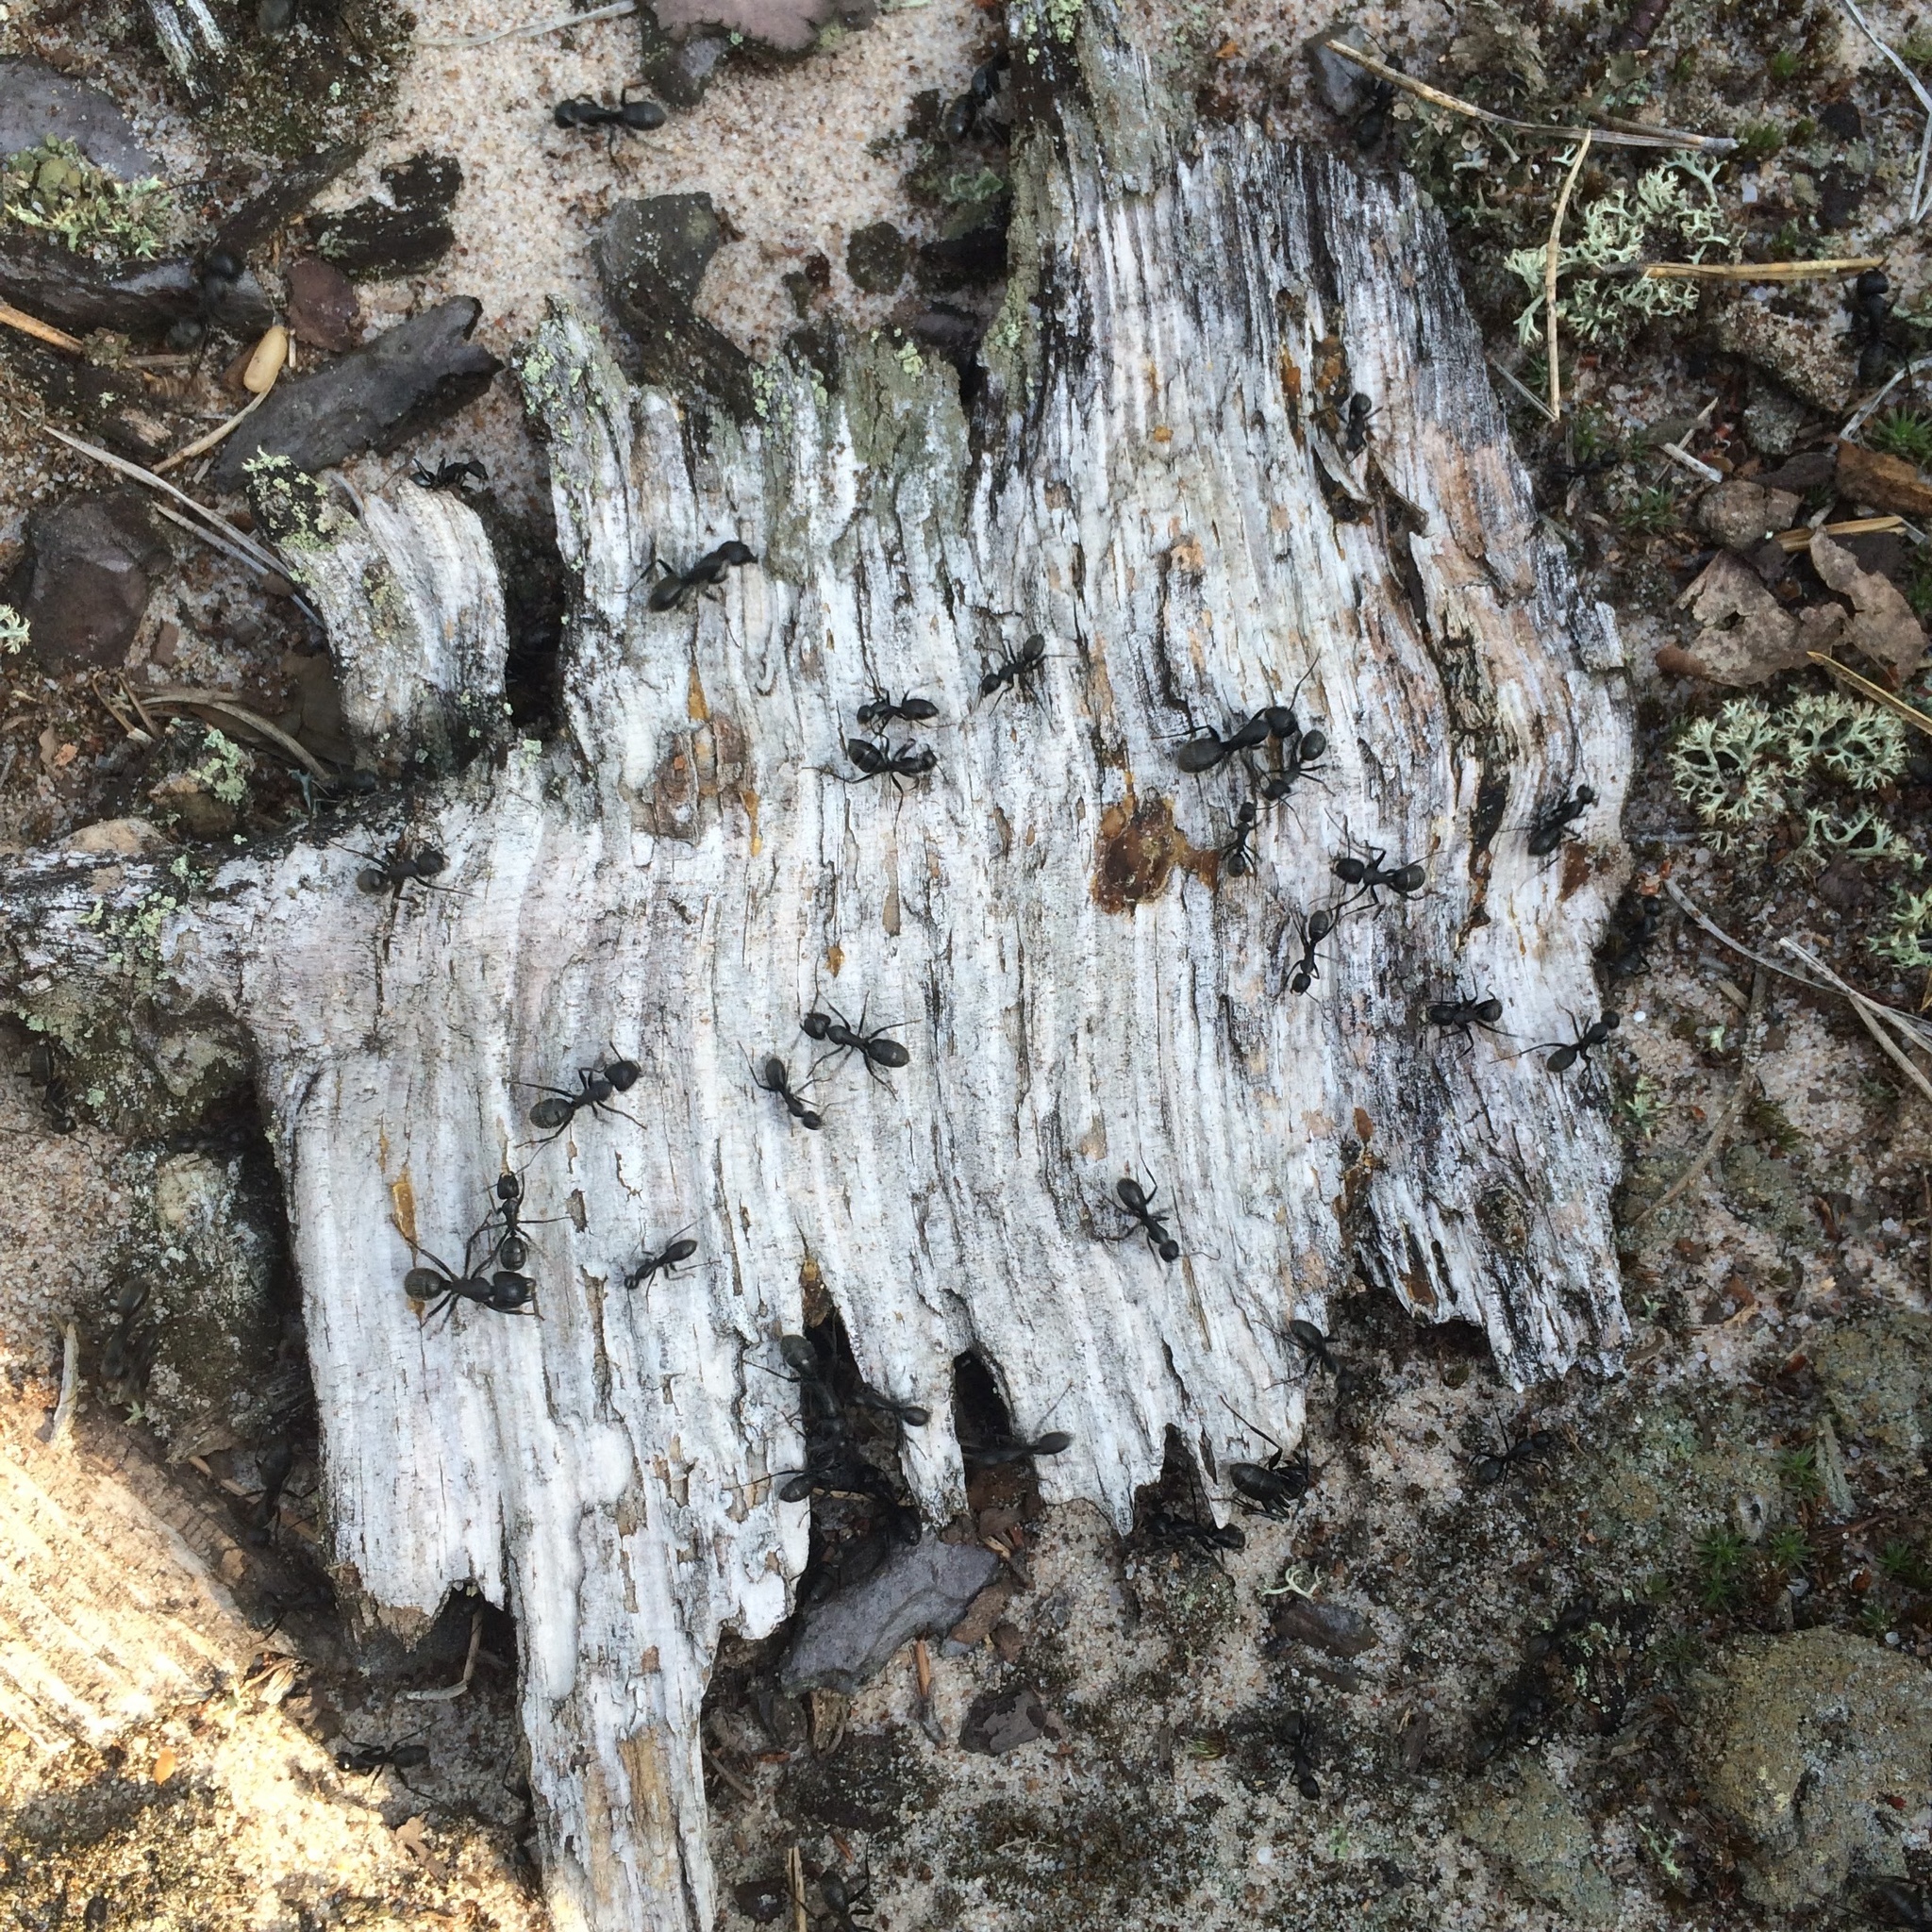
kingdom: Animalia
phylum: Arthropoda
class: Insecta
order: Hymenoptera
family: Formicidae
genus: Camponotus
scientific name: Camponotus vagus
